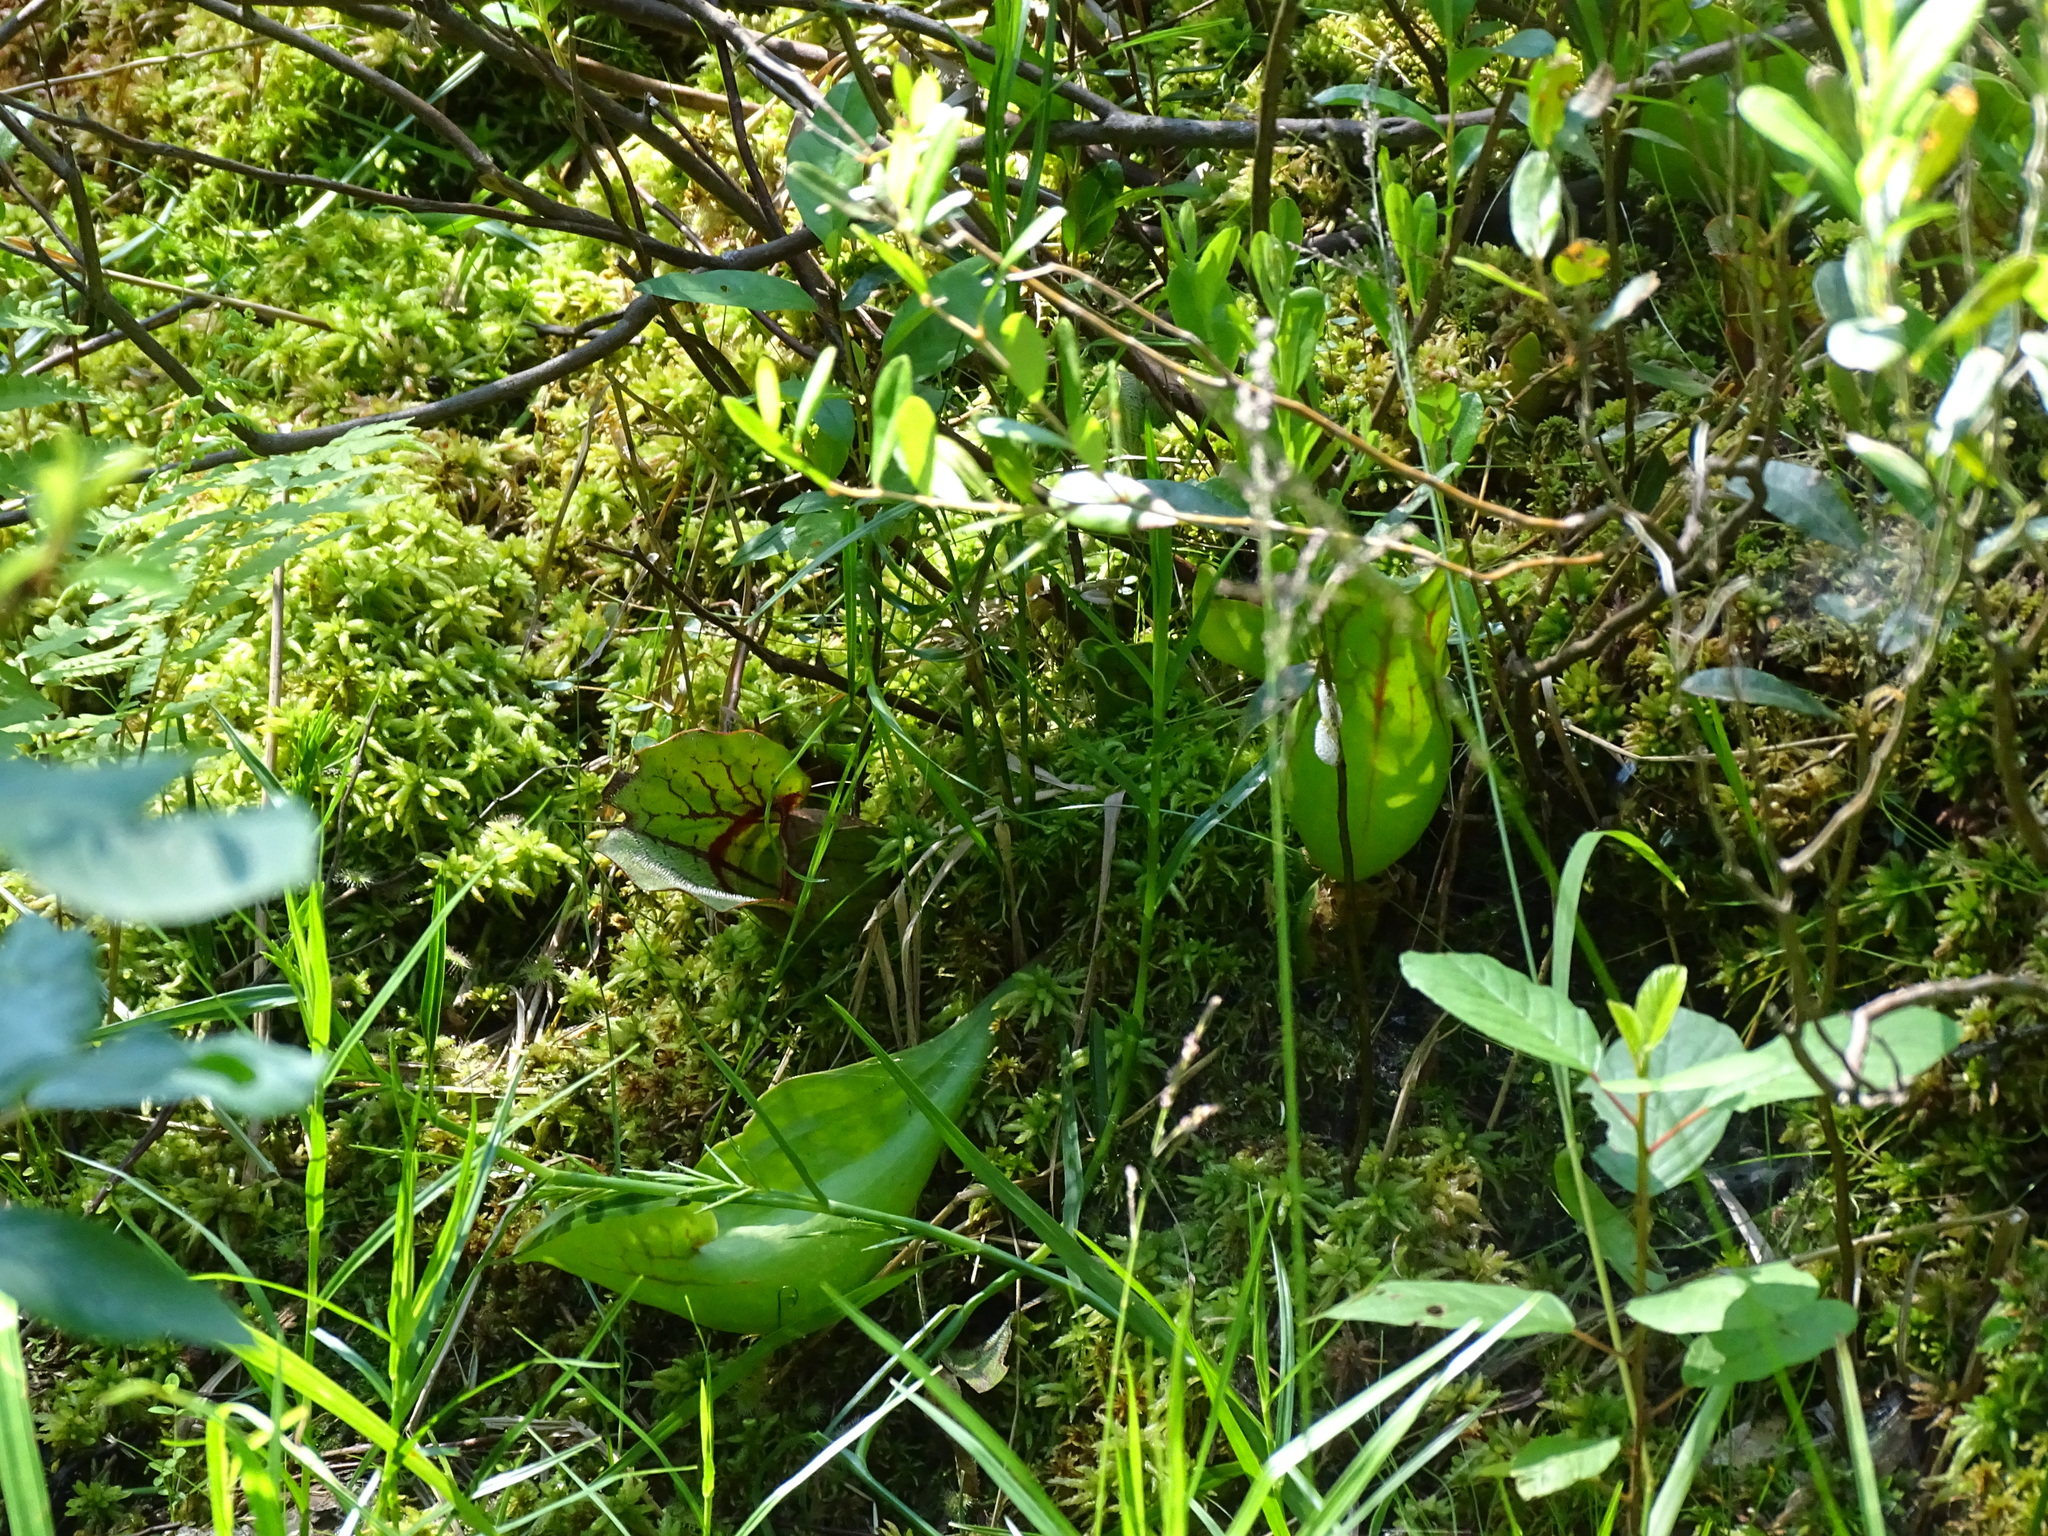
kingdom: Plantae
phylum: Tracheophyta
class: Magnoliopsida
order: Ericales
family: Sarraceniaceae
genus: Sarracenia
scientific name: Sarracenia purpurea
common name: Pitcherplant
